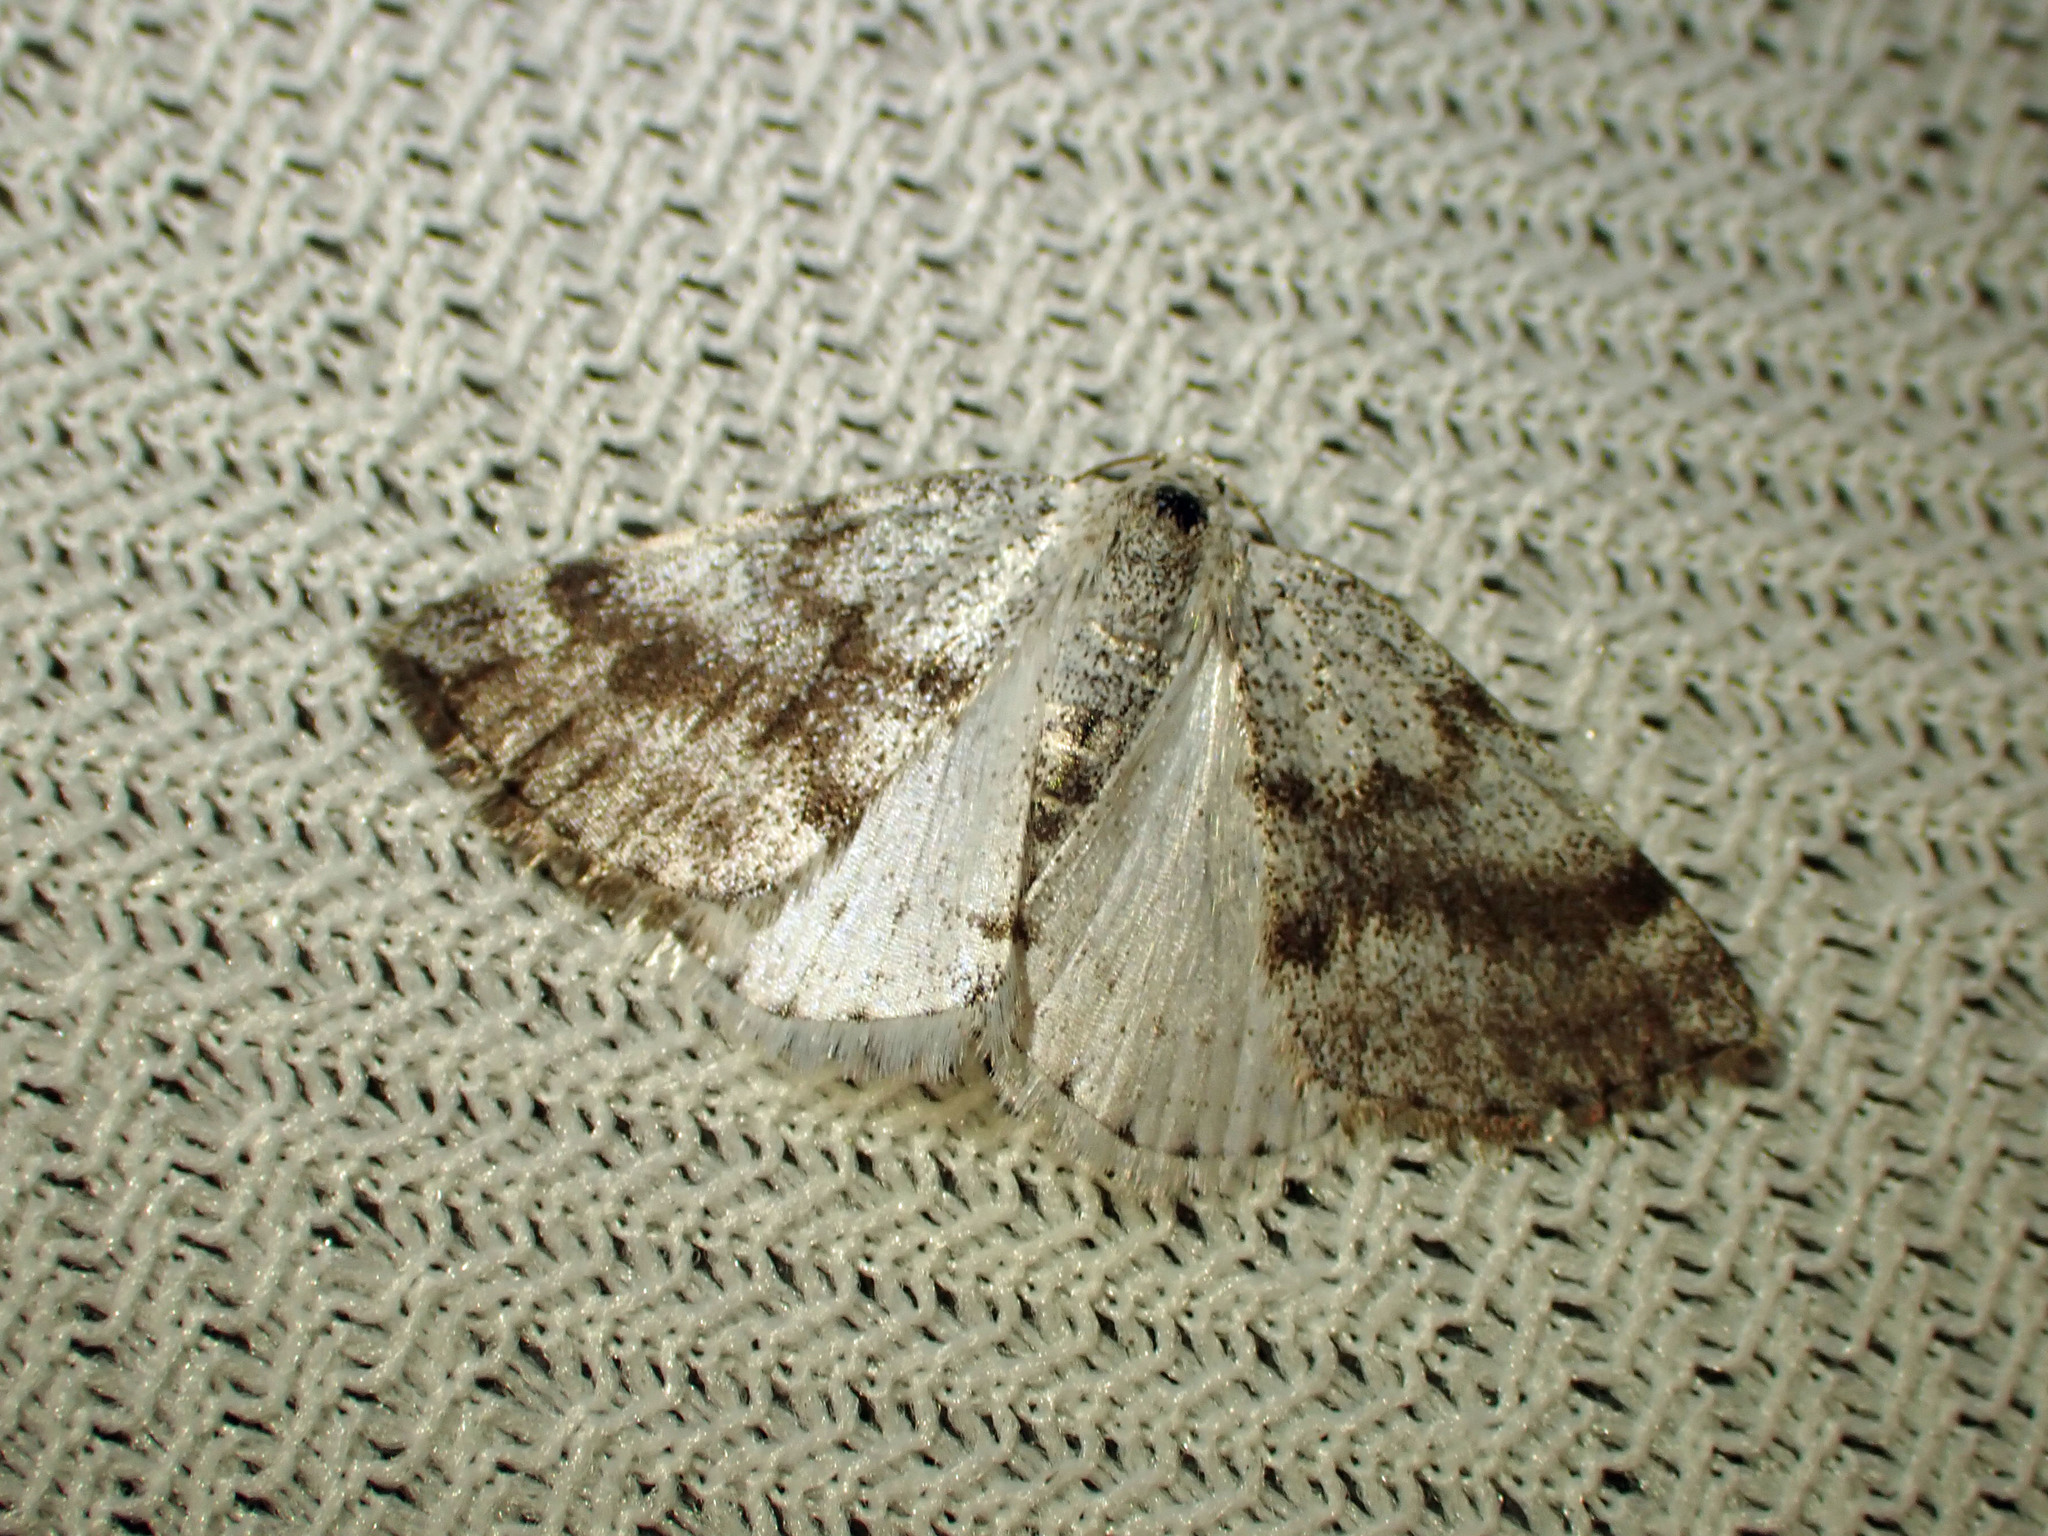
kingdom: Animalia
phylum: Arthropoda
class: Insecta
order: Lepidoptera
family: Geometridae
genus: Lomographa
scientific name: Lomographa semiclarata
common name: Bluish spring moth
